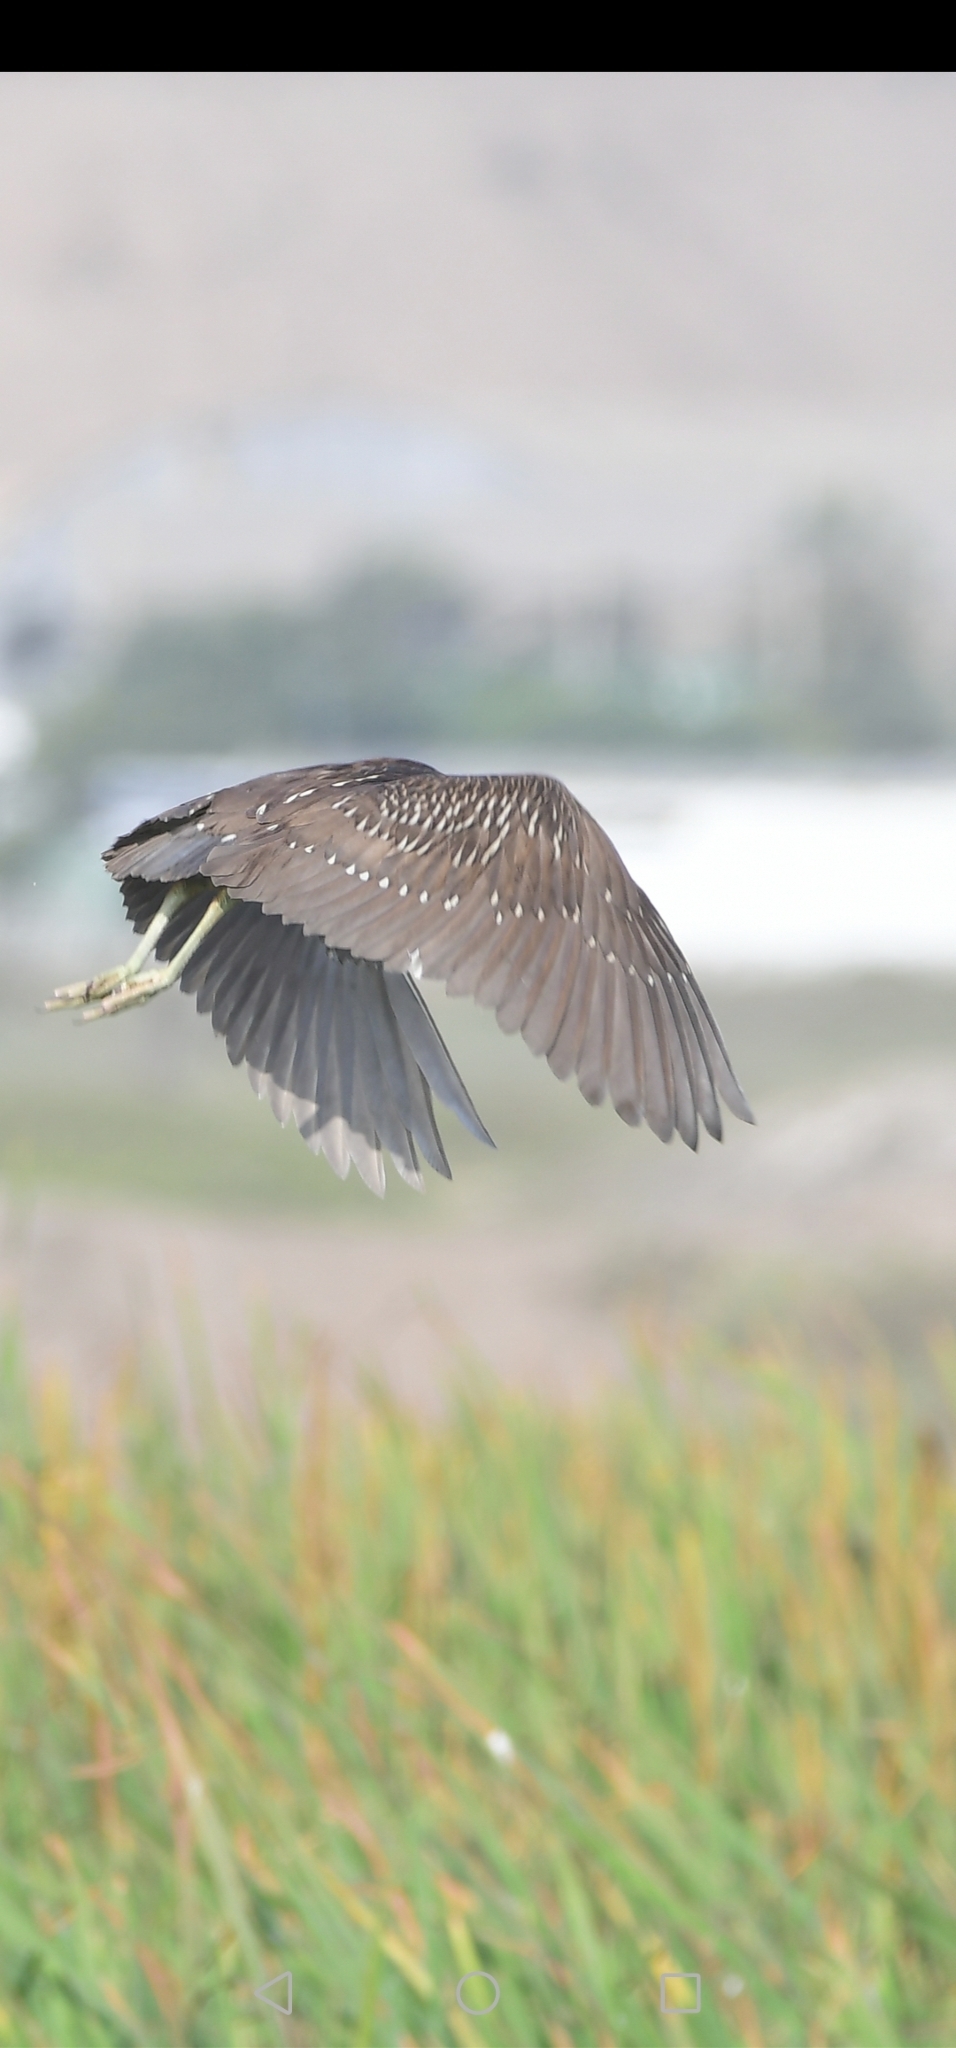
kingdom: Animalia
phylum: Chordata
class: Aves
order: Pelecaniformes
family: Ardeidae
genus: Nycticorax
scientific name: Nycticorax nycticorax
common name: Black-crowned night heron
